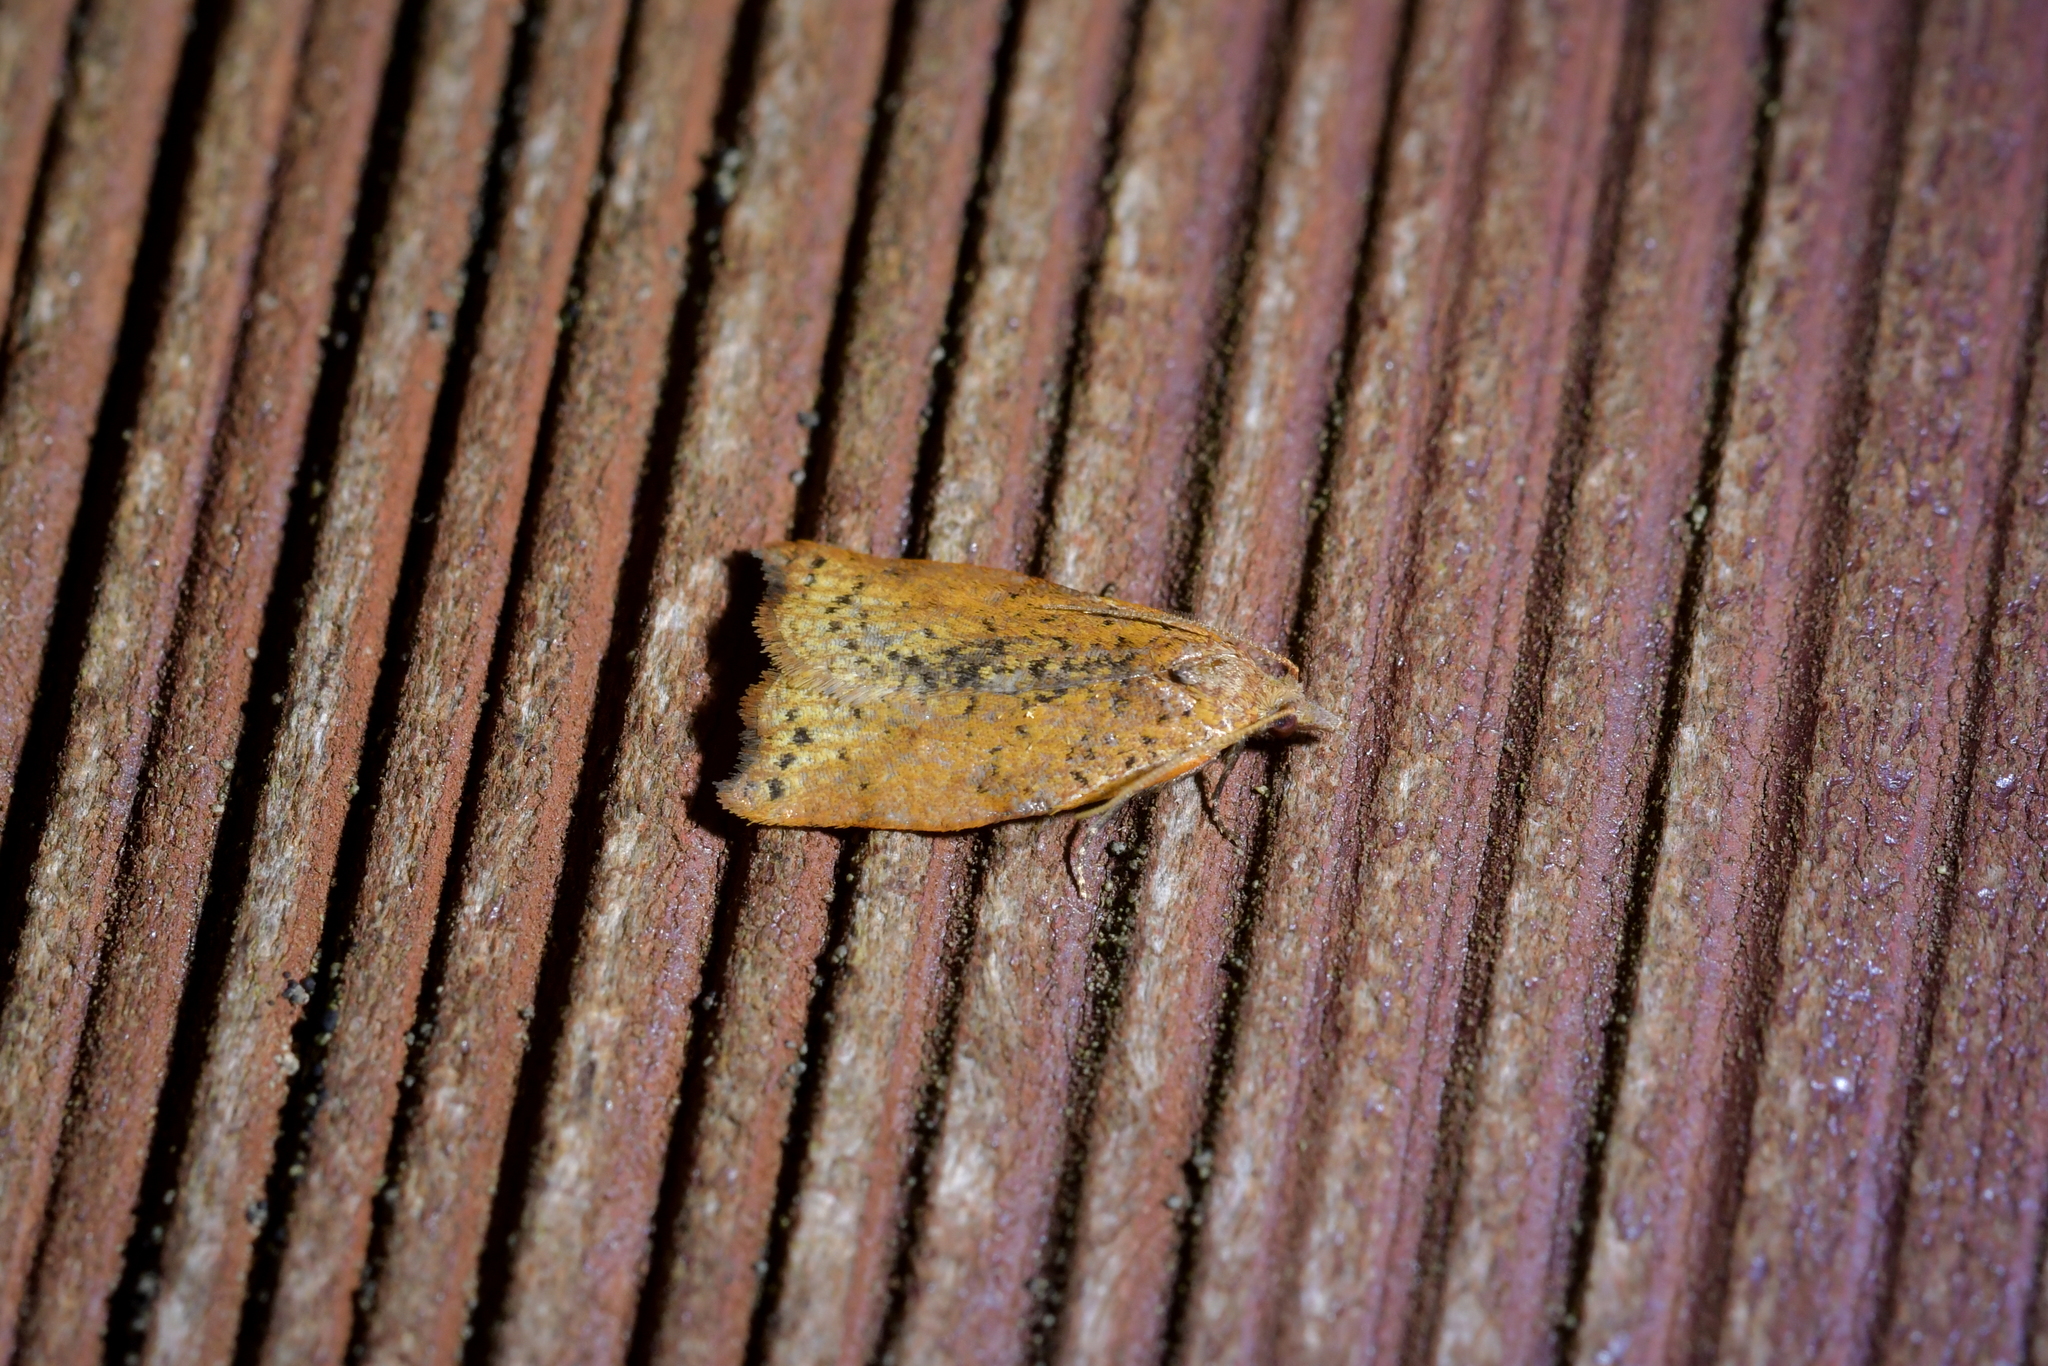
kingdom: Animalia
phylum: Arthropoda
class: Insecta
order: Lepidoptera
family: Tortricidae
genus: Apoctena
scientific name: Apoctena flavescens
